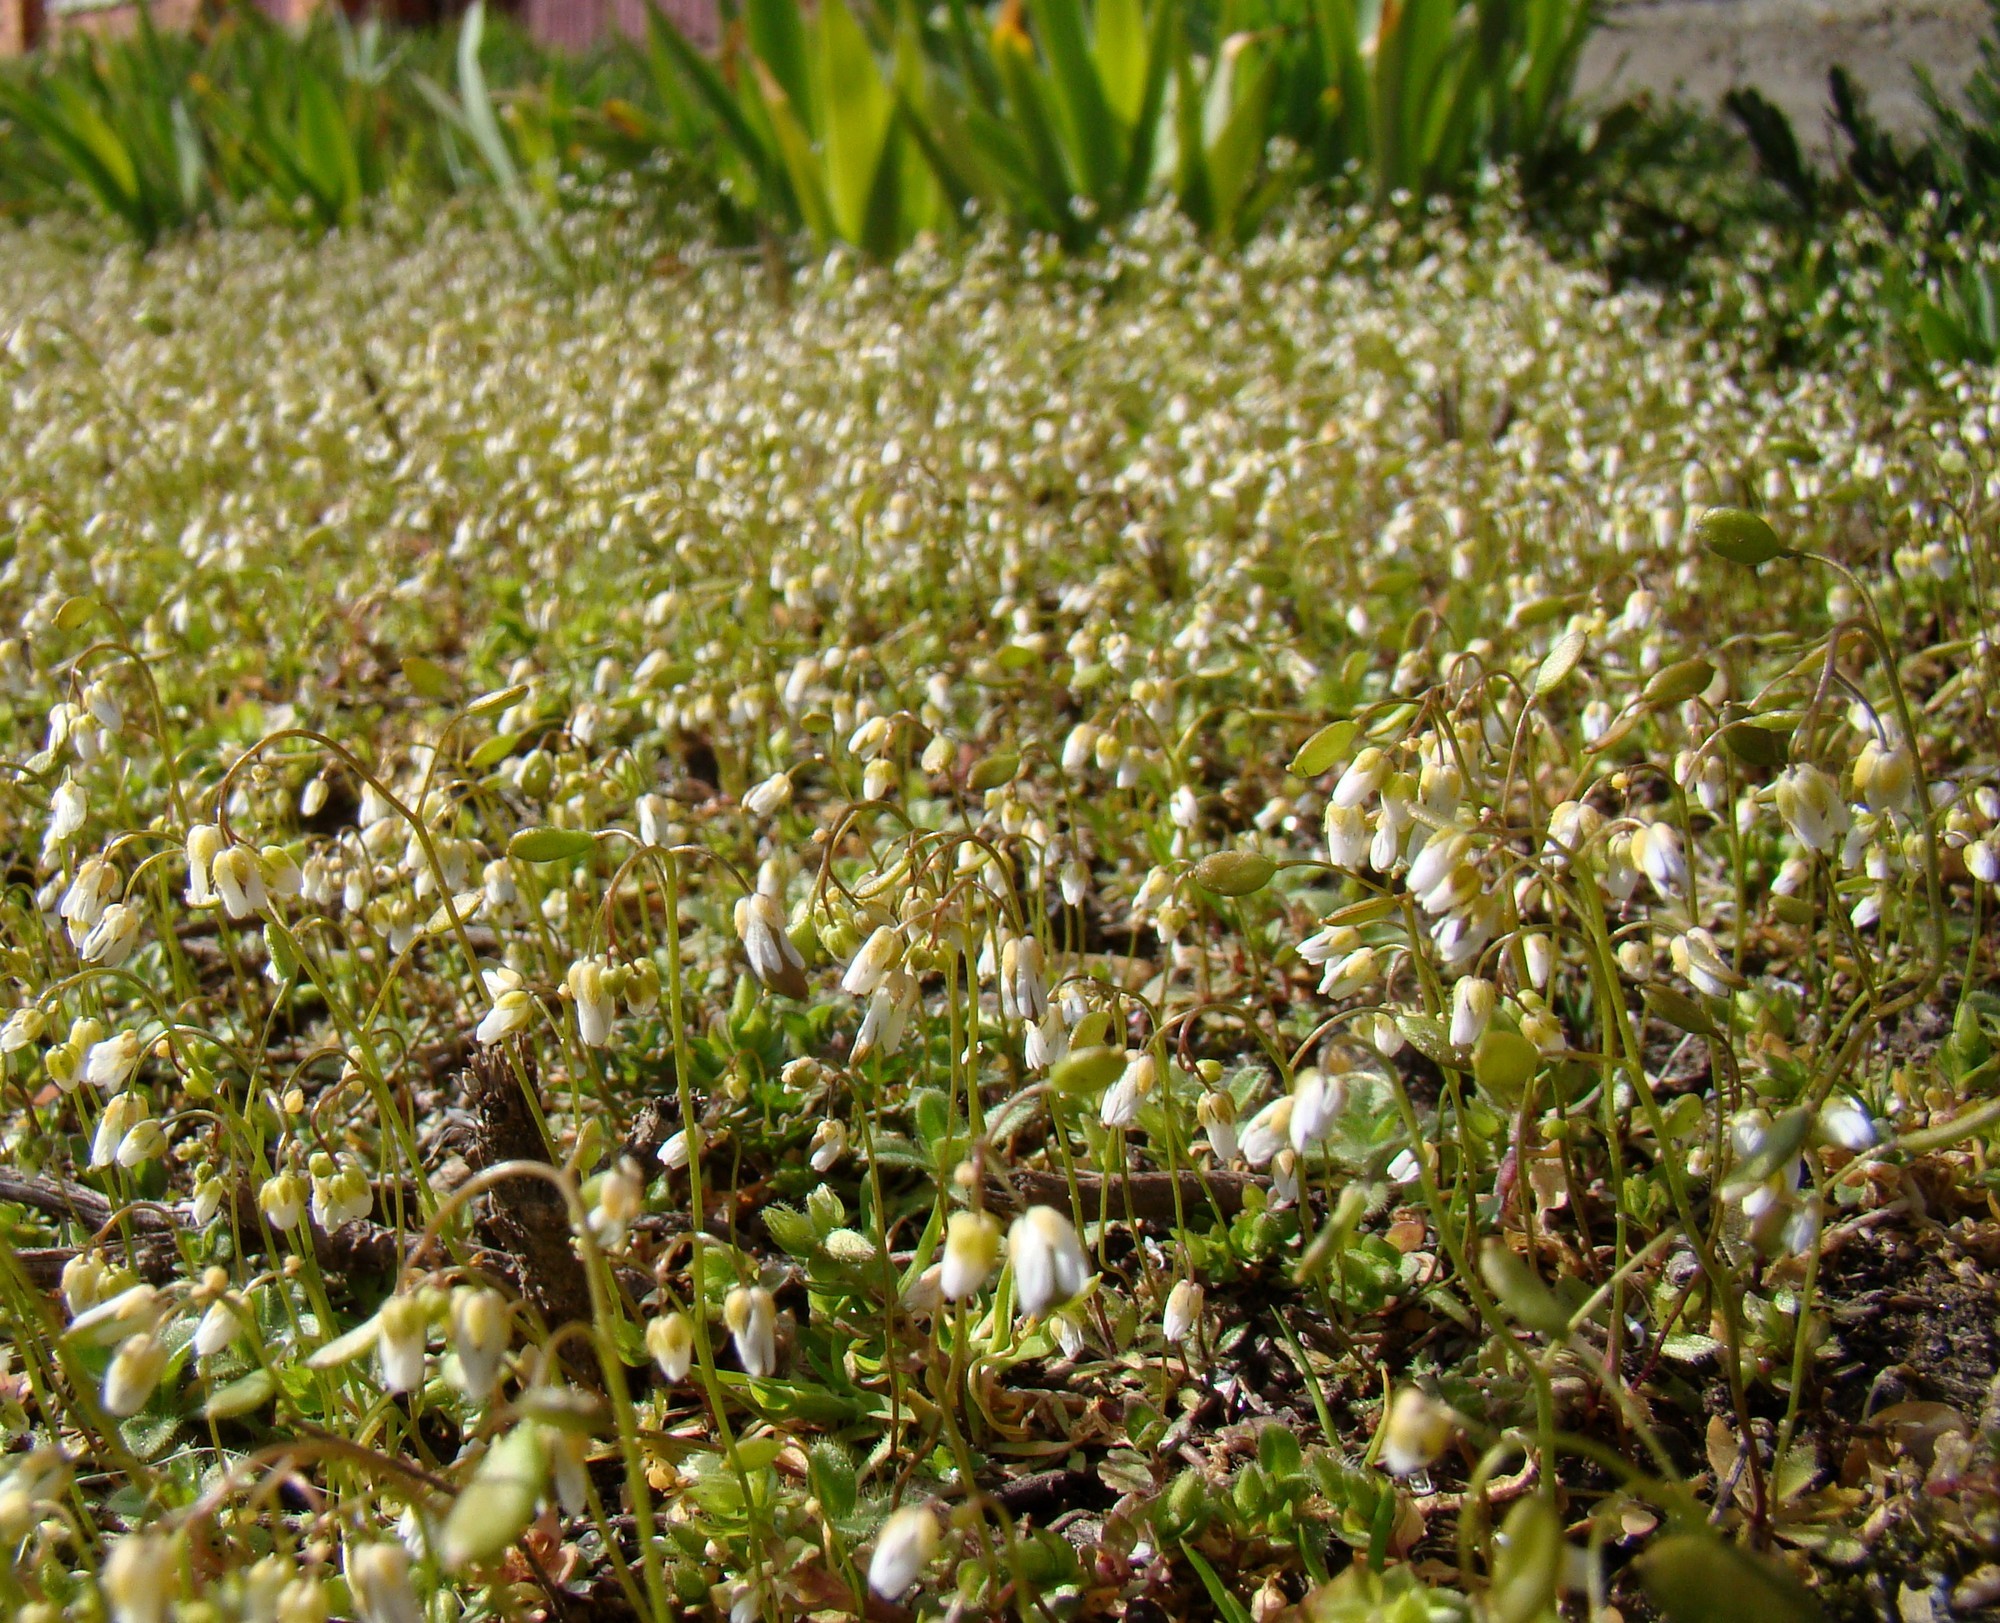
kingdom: Plantae
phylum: Tracheophyta
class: Magnoliopsida
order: Brassicales
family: Brassicaceae
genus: Draba
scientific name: Draba verna
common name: Spring draba
